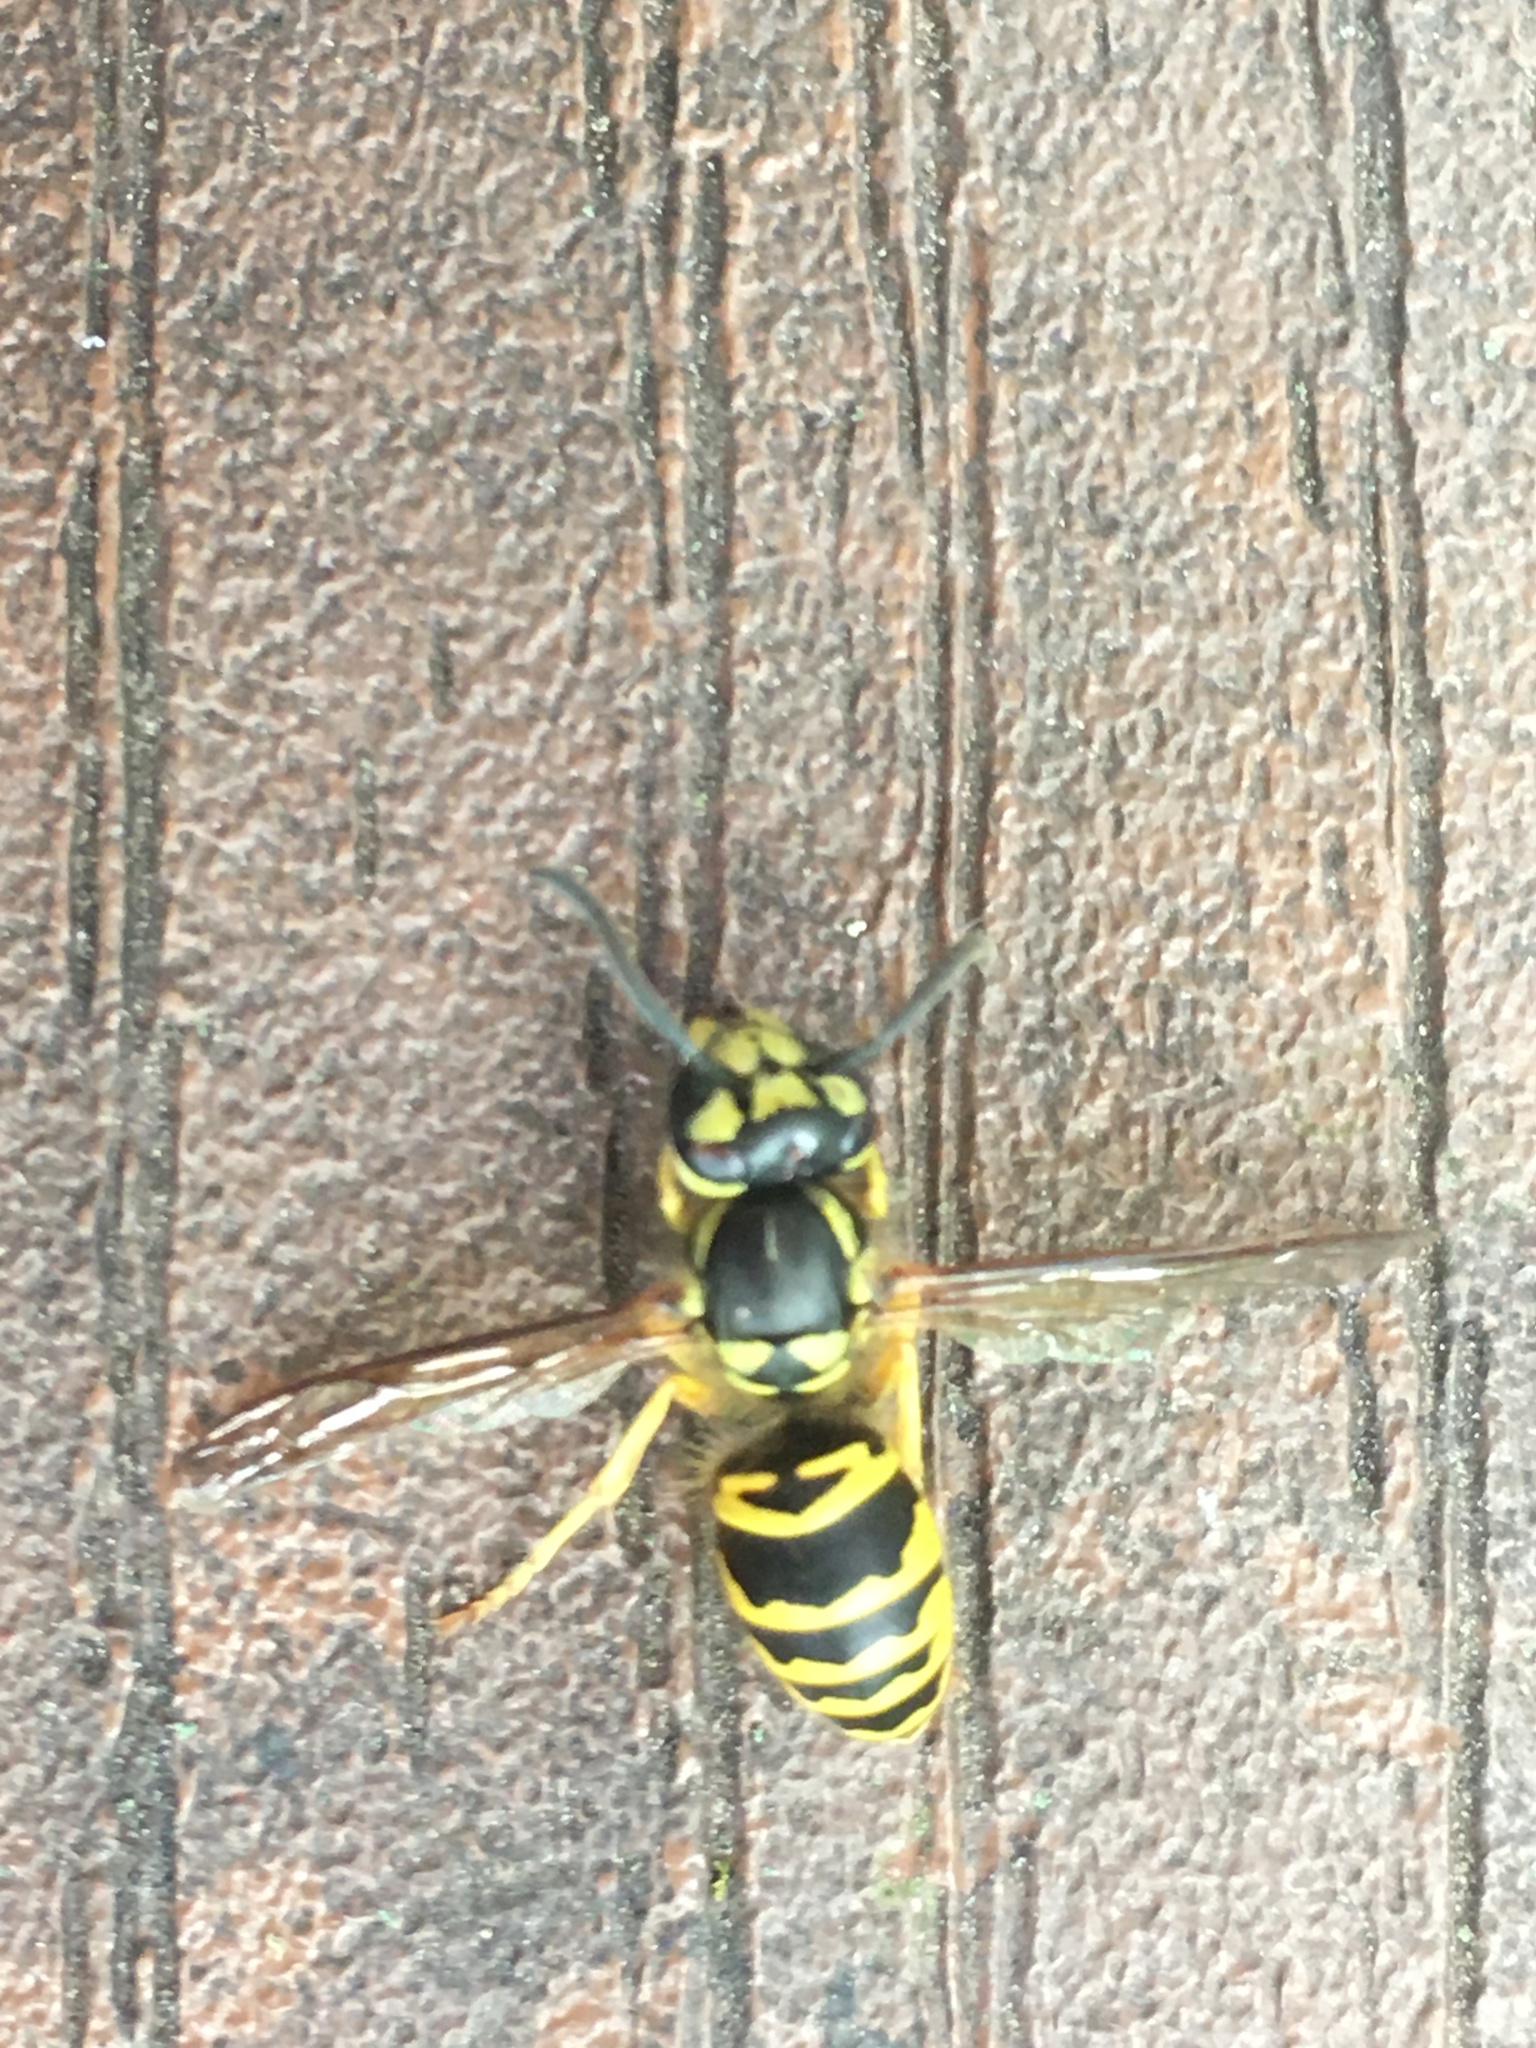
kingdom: Animalia
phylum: Arthropoda
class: Insecta
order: Hymenoptera
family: Vespidae
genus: Vespula
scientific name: Vespula maculifrons
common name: Eastern yellowjacket
